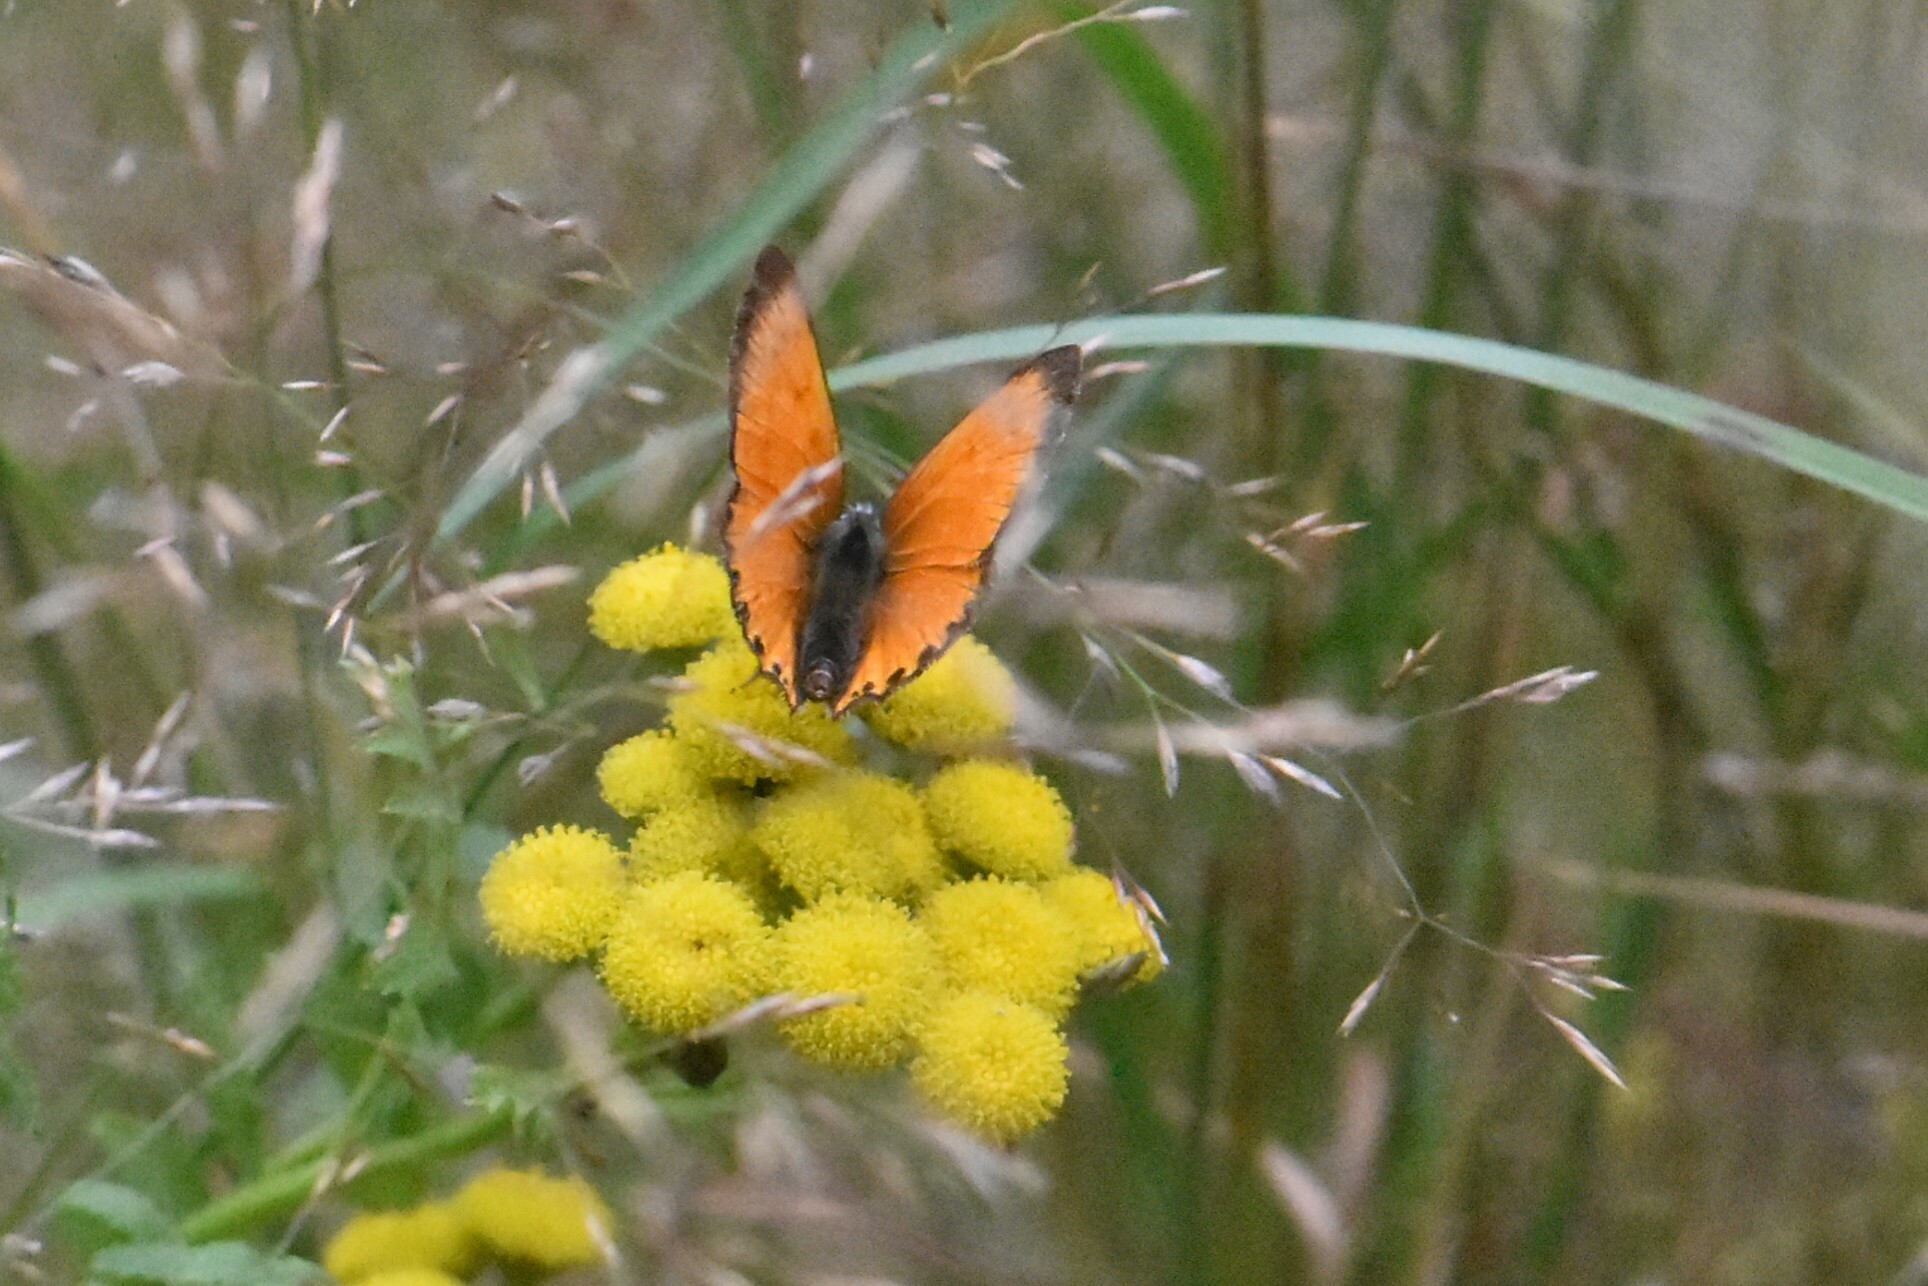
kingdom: Animalia
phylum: Arthropoda
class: Insecta
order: Lepidoptera
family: Lycaenidae
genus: Lycaena
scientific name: Lycaena virgaureae
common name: Scarce copper
